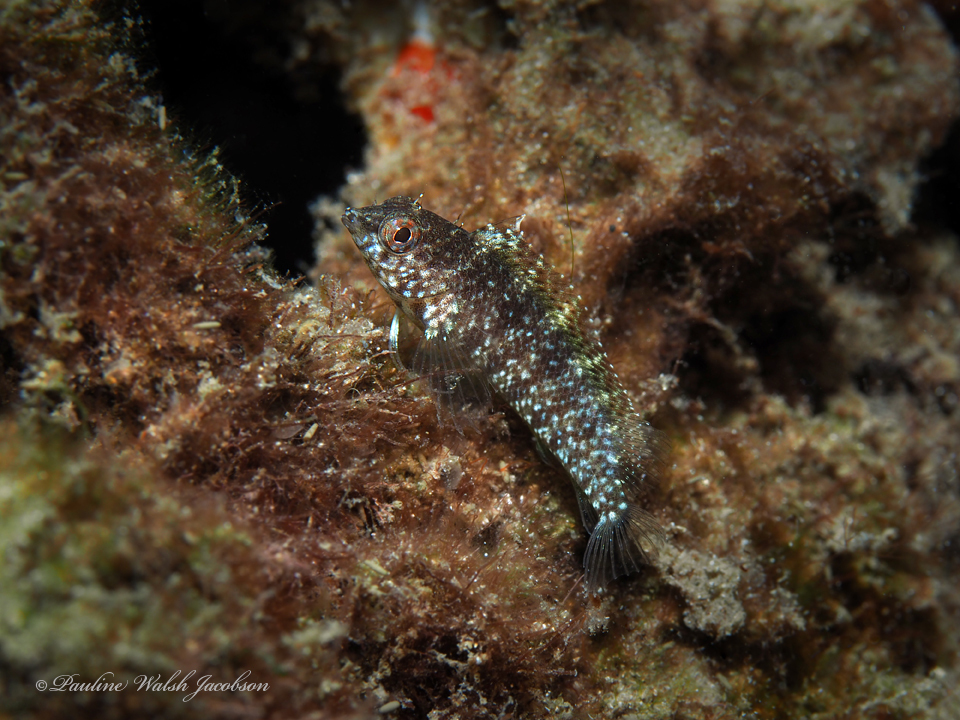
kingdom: Animalia
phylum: Chordata
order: Perciformes
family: Labrisomidae
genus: Malacoctenus
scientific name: Malacoctenus macropus
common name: Rosy blenny
